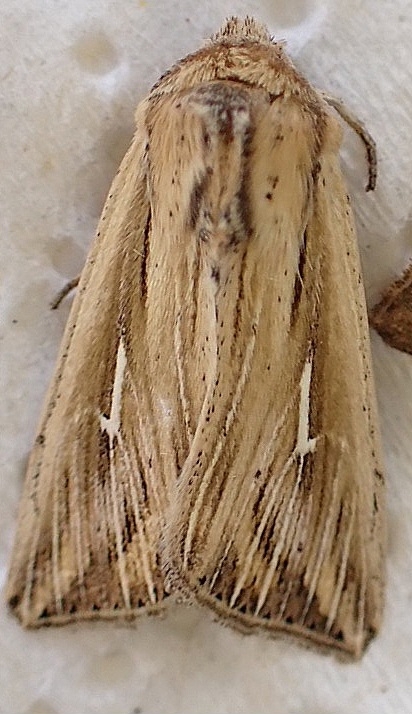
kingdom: Animalia
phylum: Arthropoda
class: Insecta
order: Lepidoptera
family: Noctuidae
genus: Mythimna
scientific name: Mythimna l-album
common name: L-album wainscot
